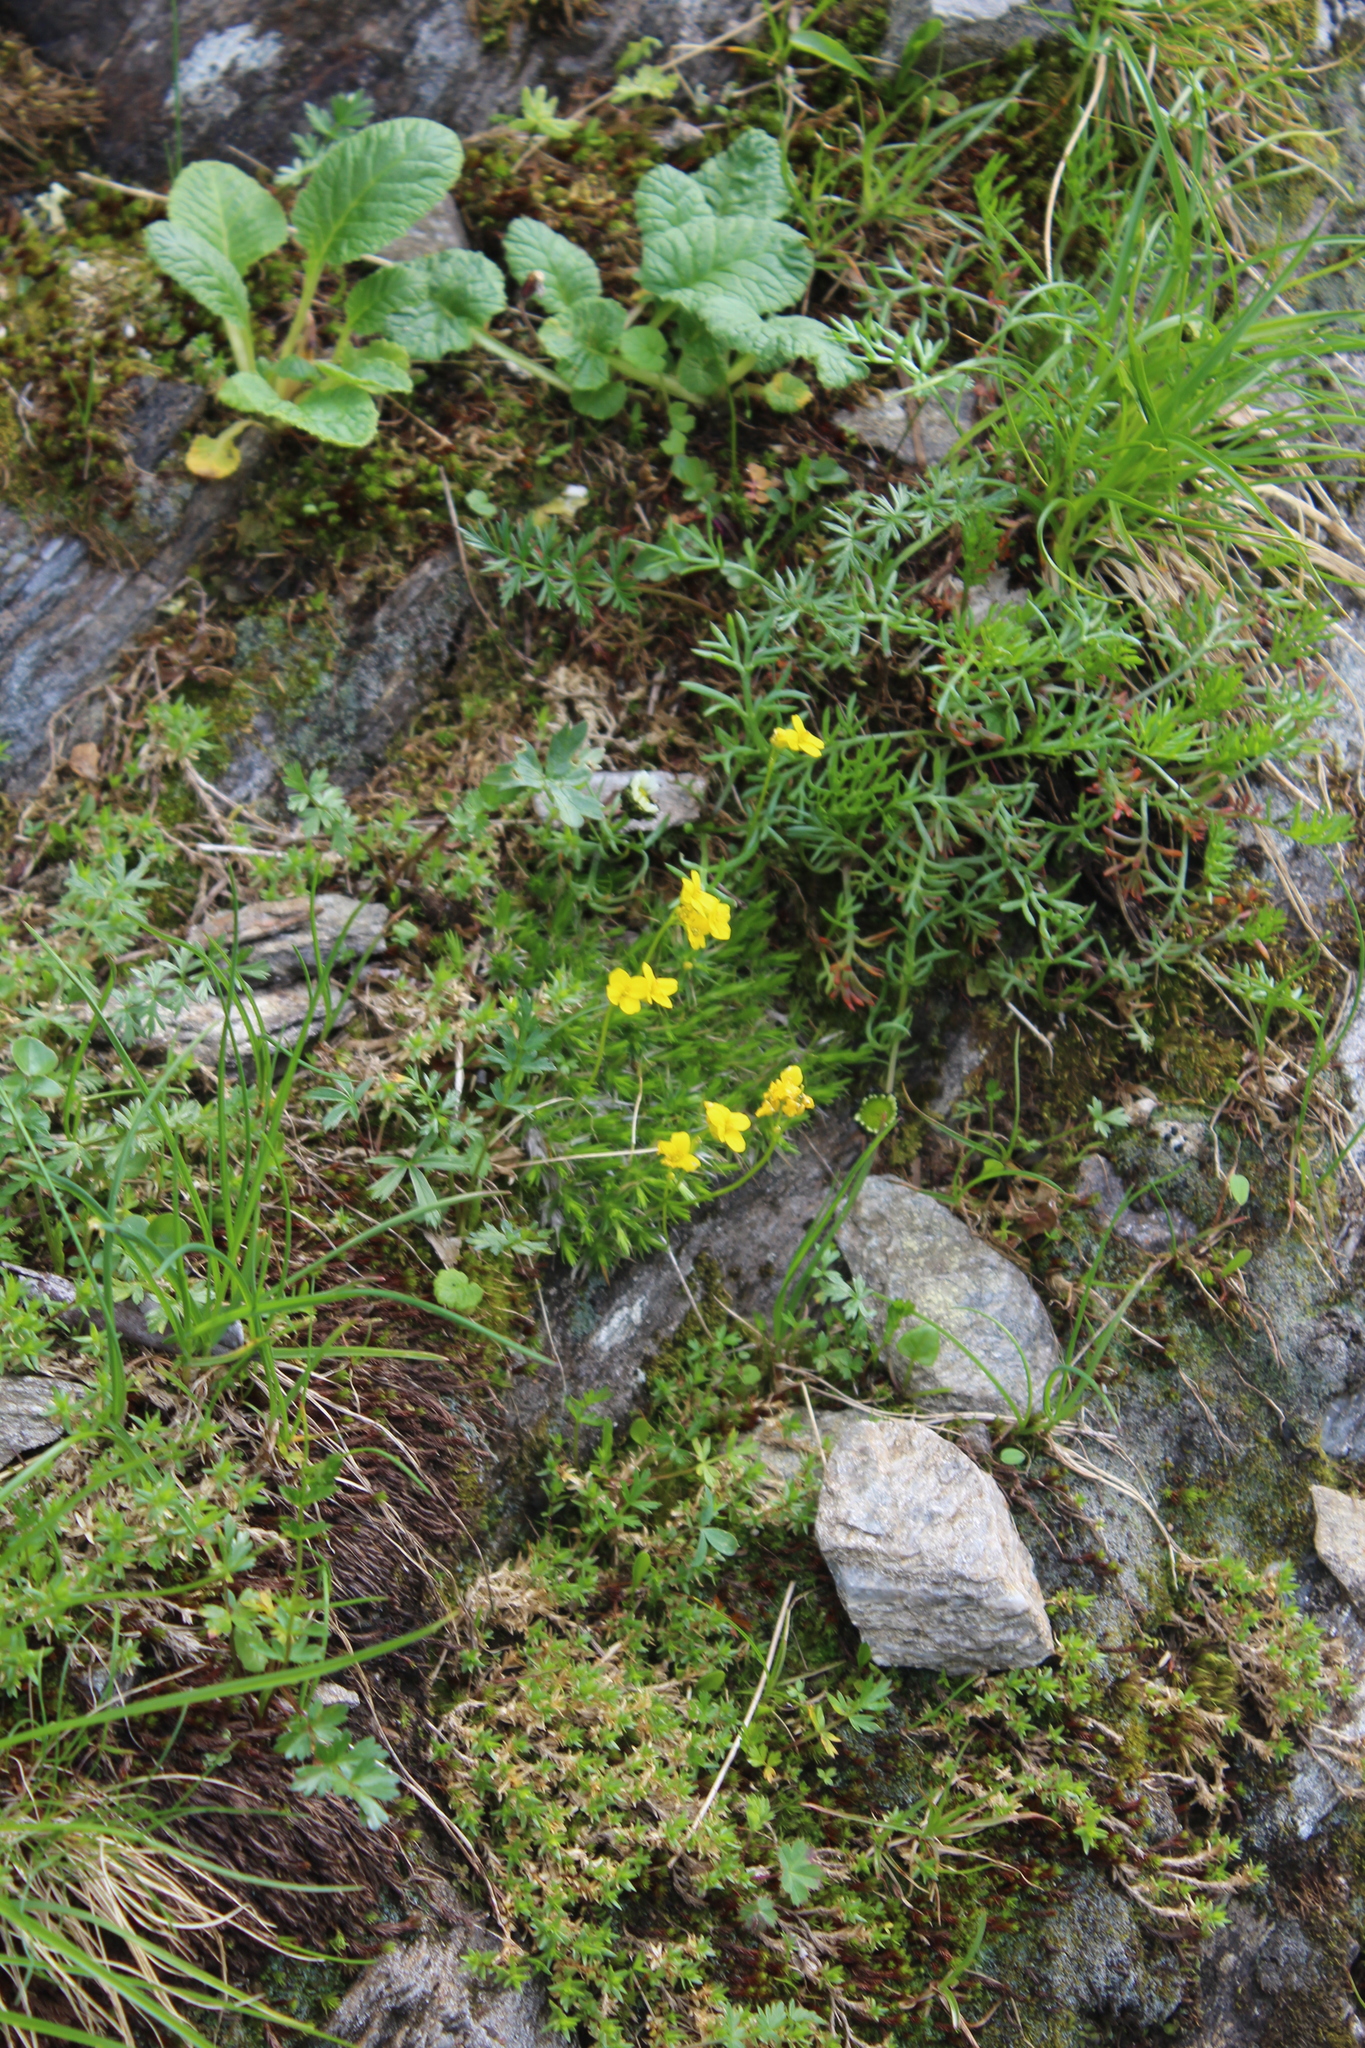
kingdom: Plantae
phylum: Tracheophyta
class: Magnoliopsida
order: Brassicales
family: Brassicaceae
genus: Draba
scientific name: Draba scabra
